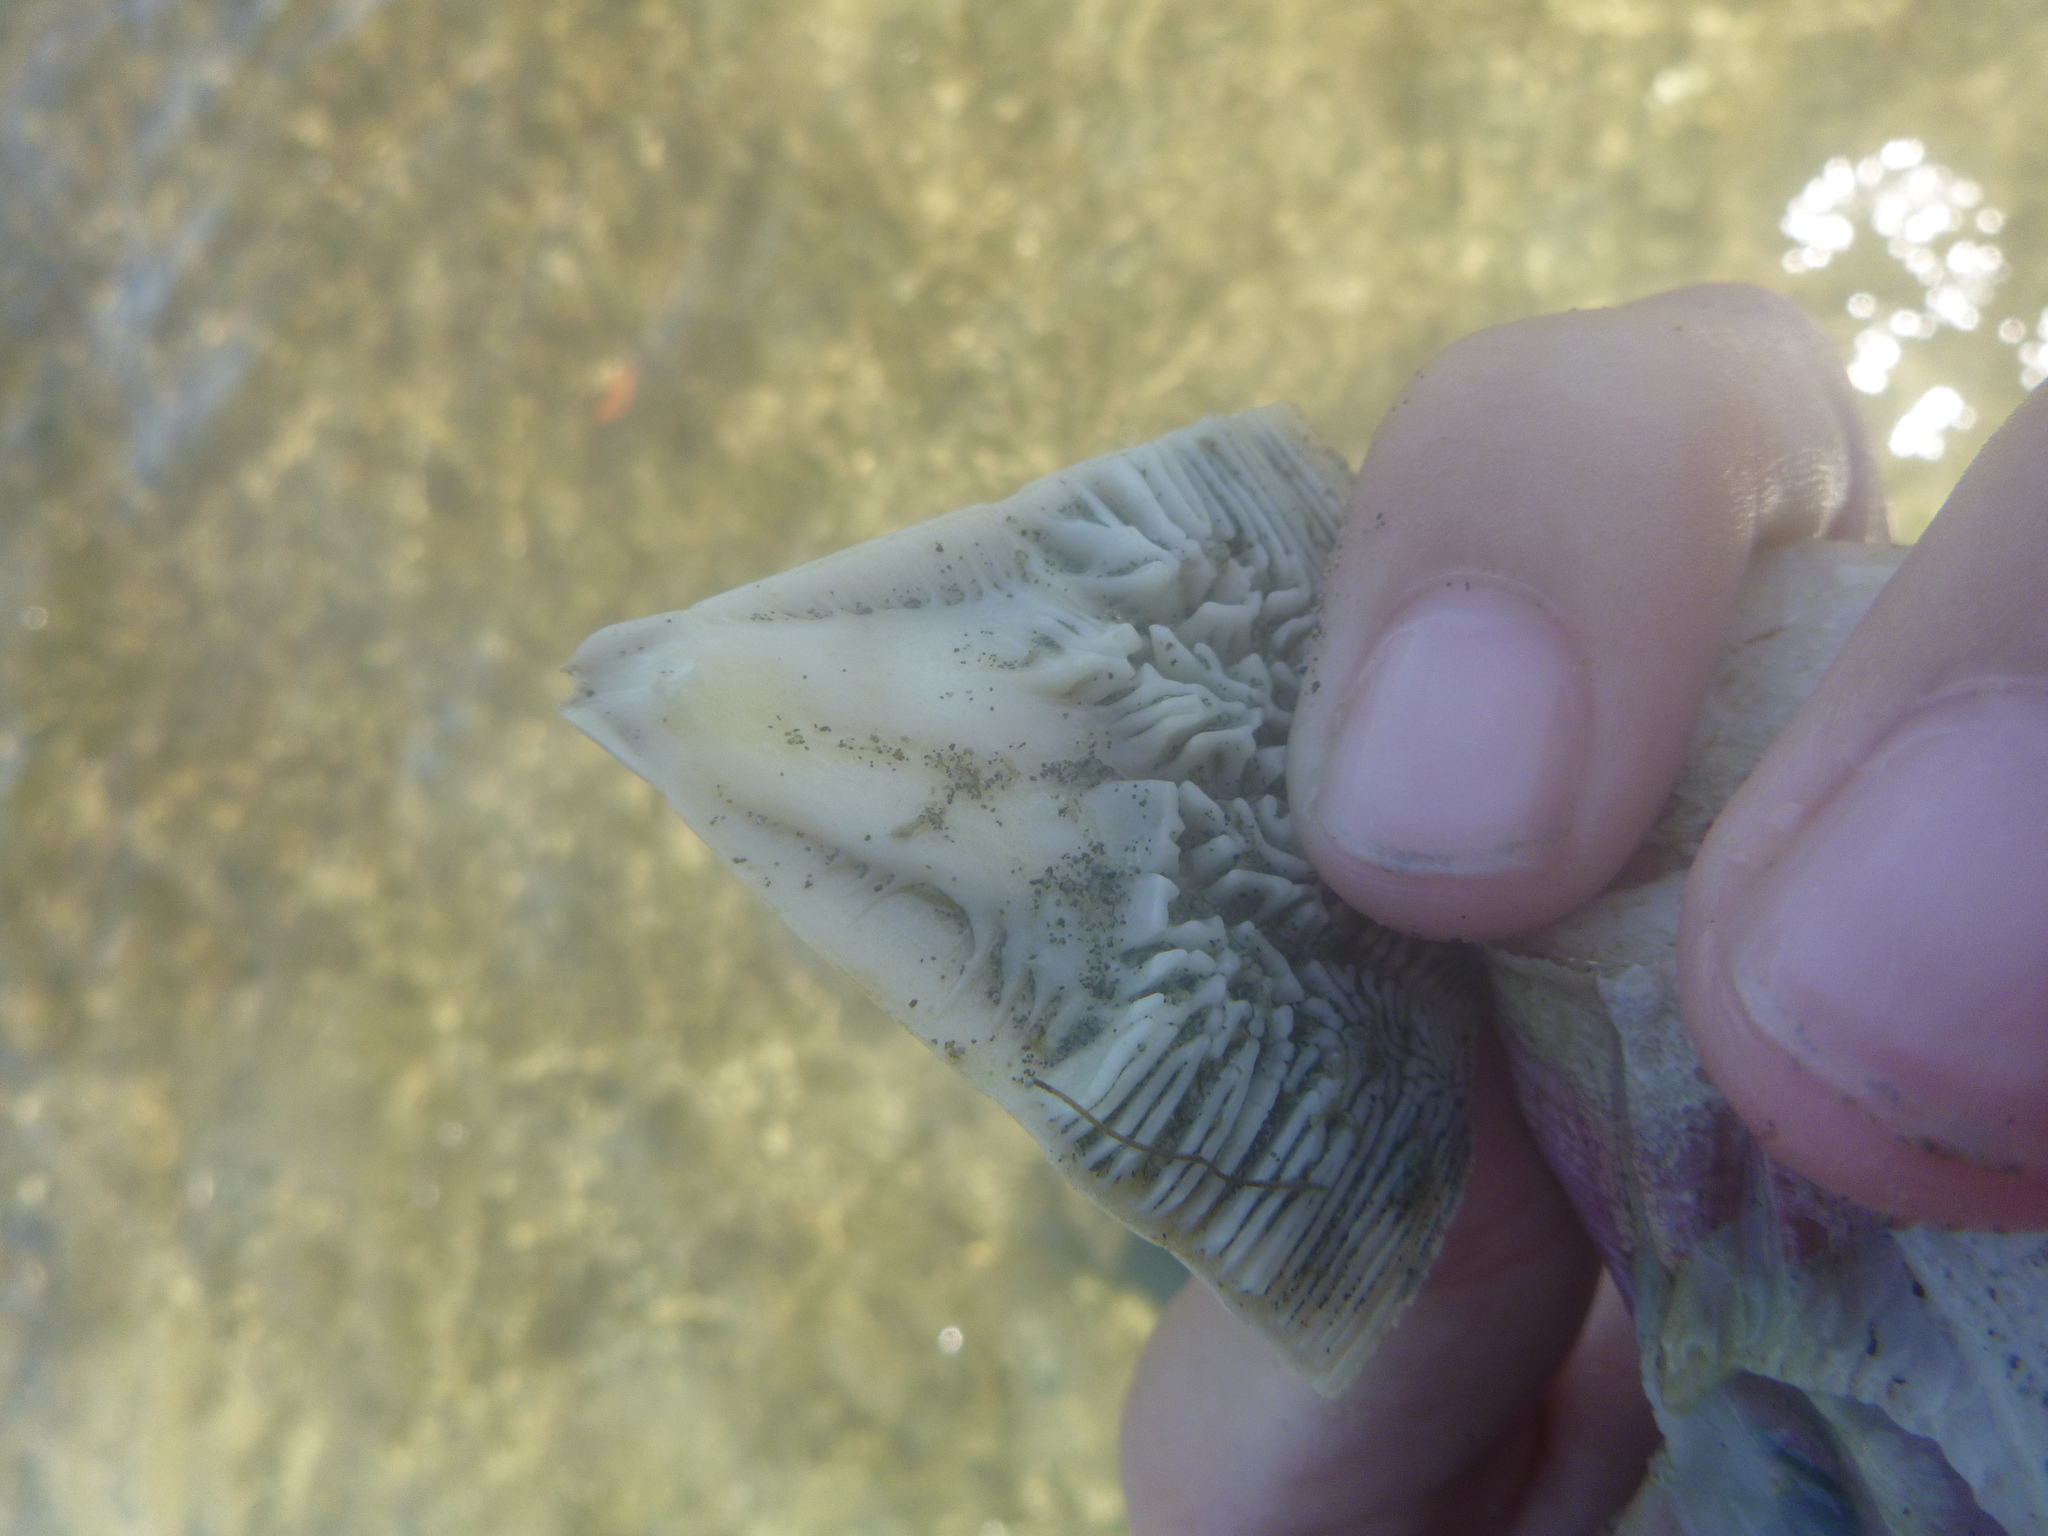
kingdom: Animalia
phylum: Echinodermata
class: Echinoidea
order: Clypeasteroida
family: Clypeasteridae
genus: Fellaster
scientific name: Fellaster zelandiae
